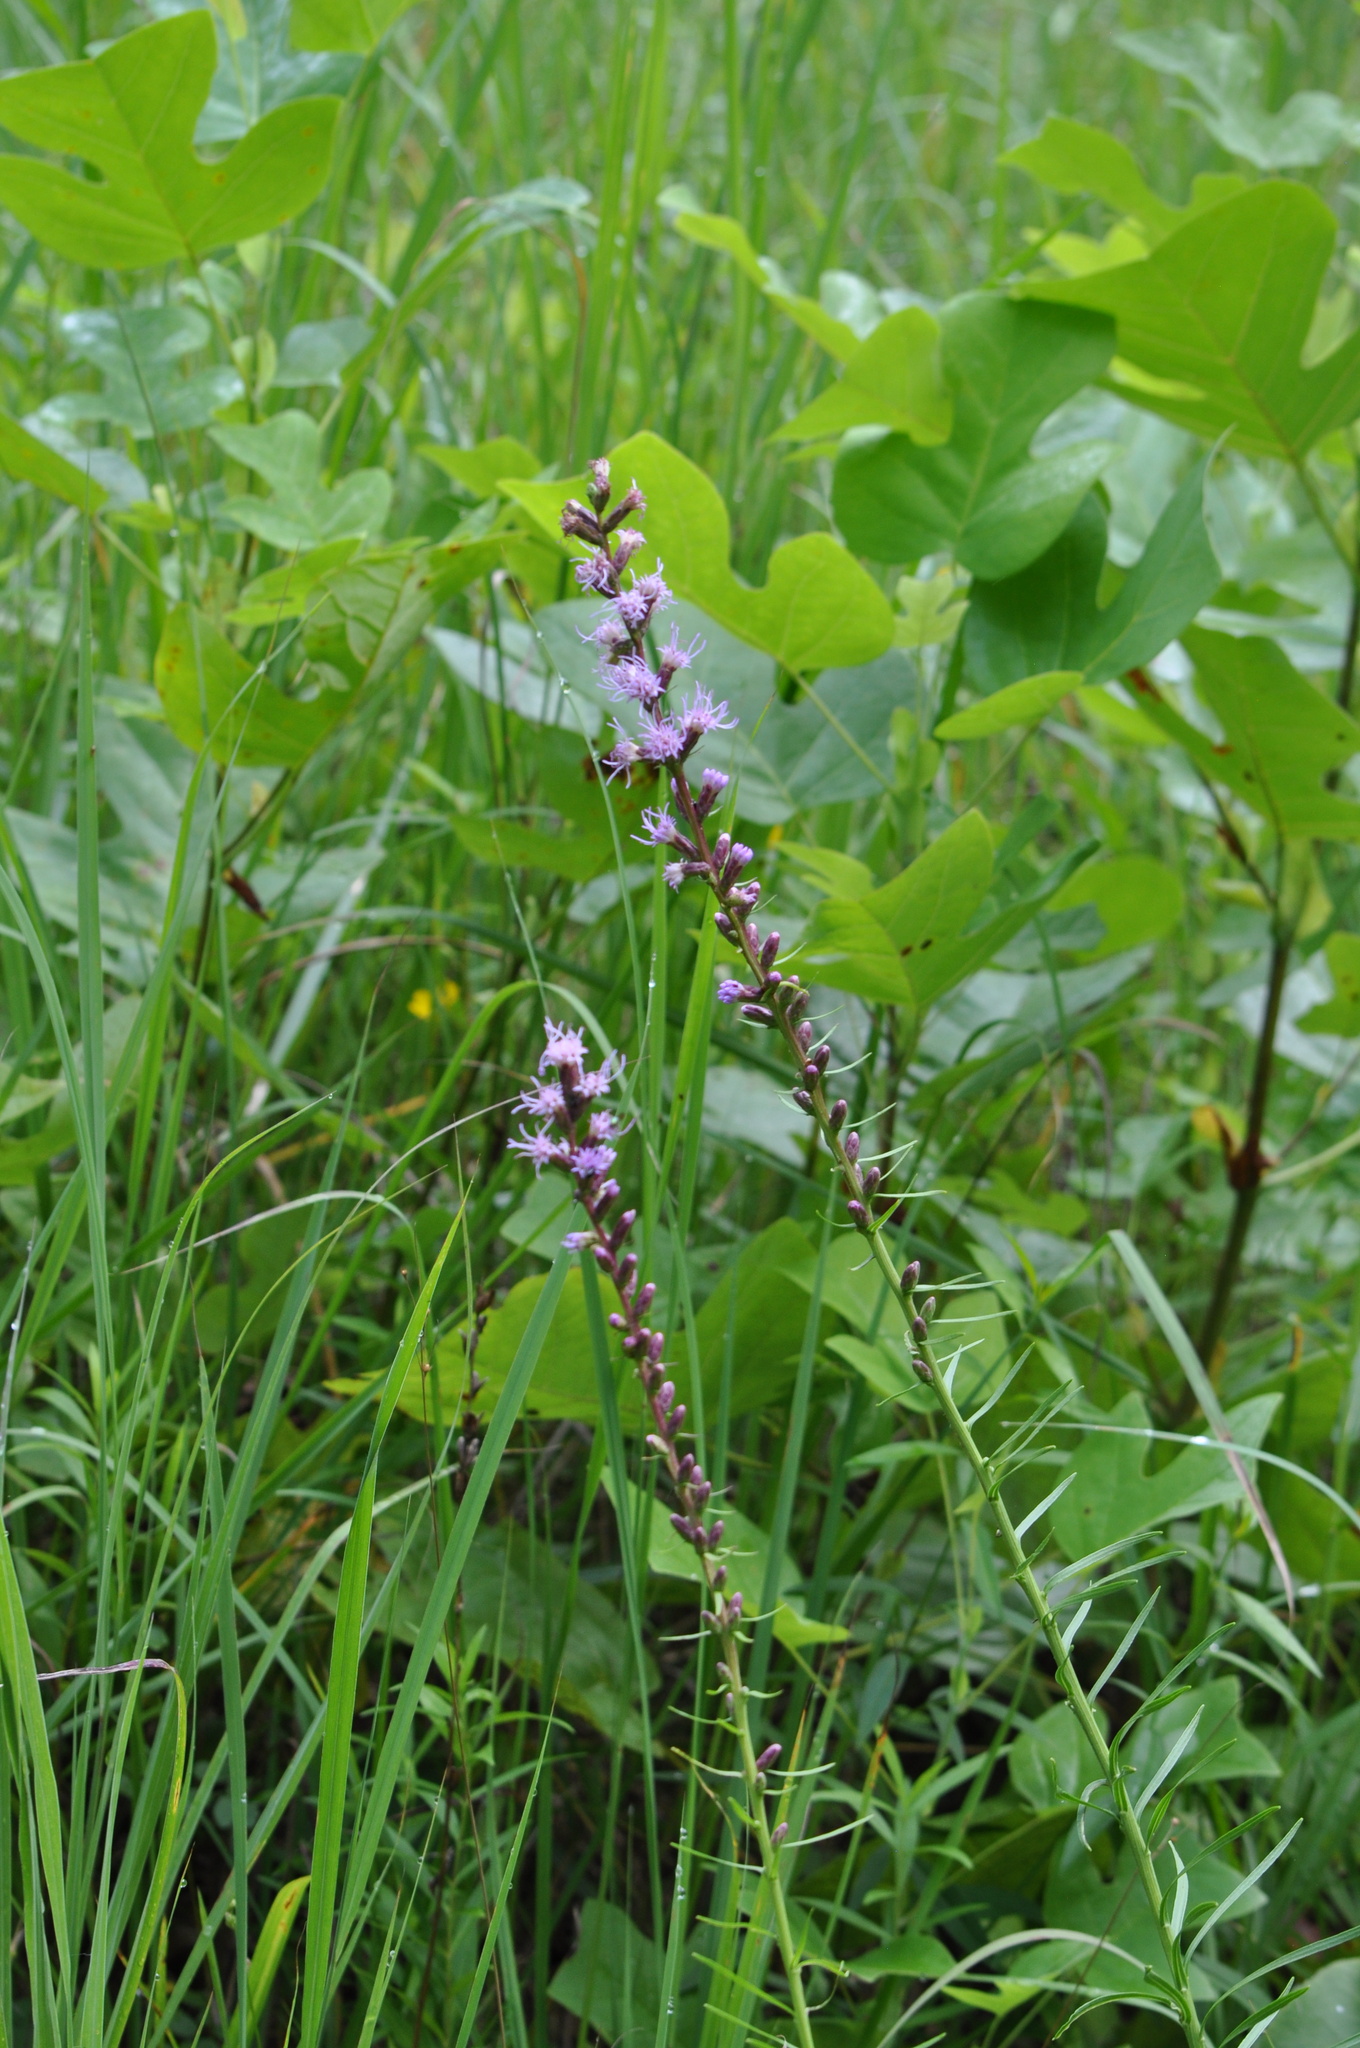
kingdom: Plantae
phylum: Tracheophyta
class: Magnoliopsida
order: Asterales
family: Asteraceae
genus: Liatris
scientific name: Liatris spicata
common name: Florist gayfeather
